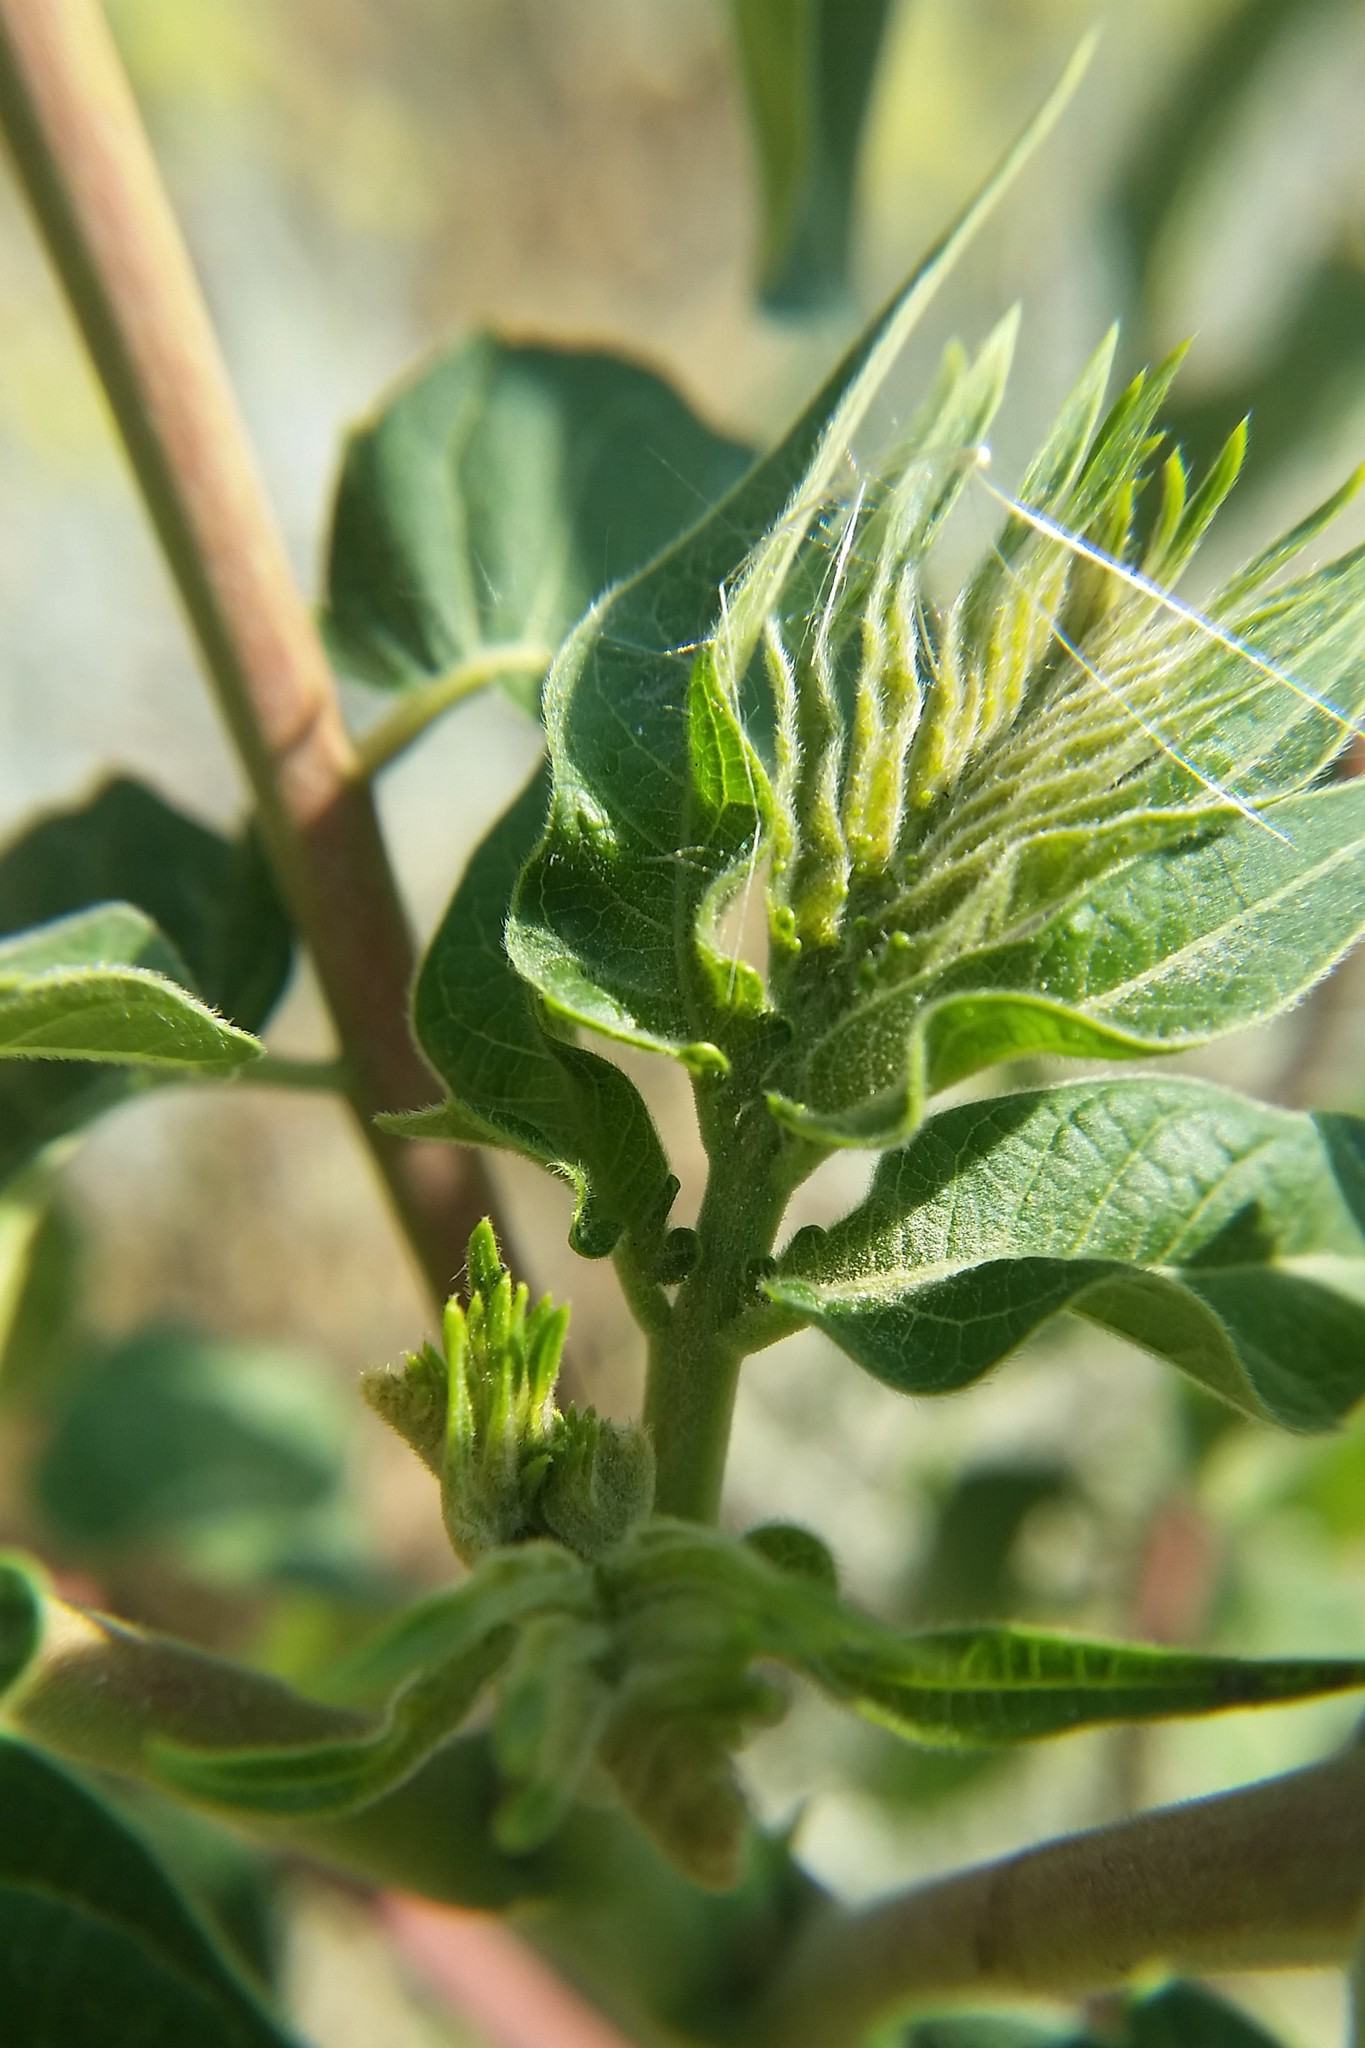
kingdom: Plantae
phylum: Tracheophyta
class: Magnoliopsida
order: Sapindales
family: Simaroubaceae
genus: Ailanthus
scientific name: Ailanthus altissima
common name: Tree-of-heaven
